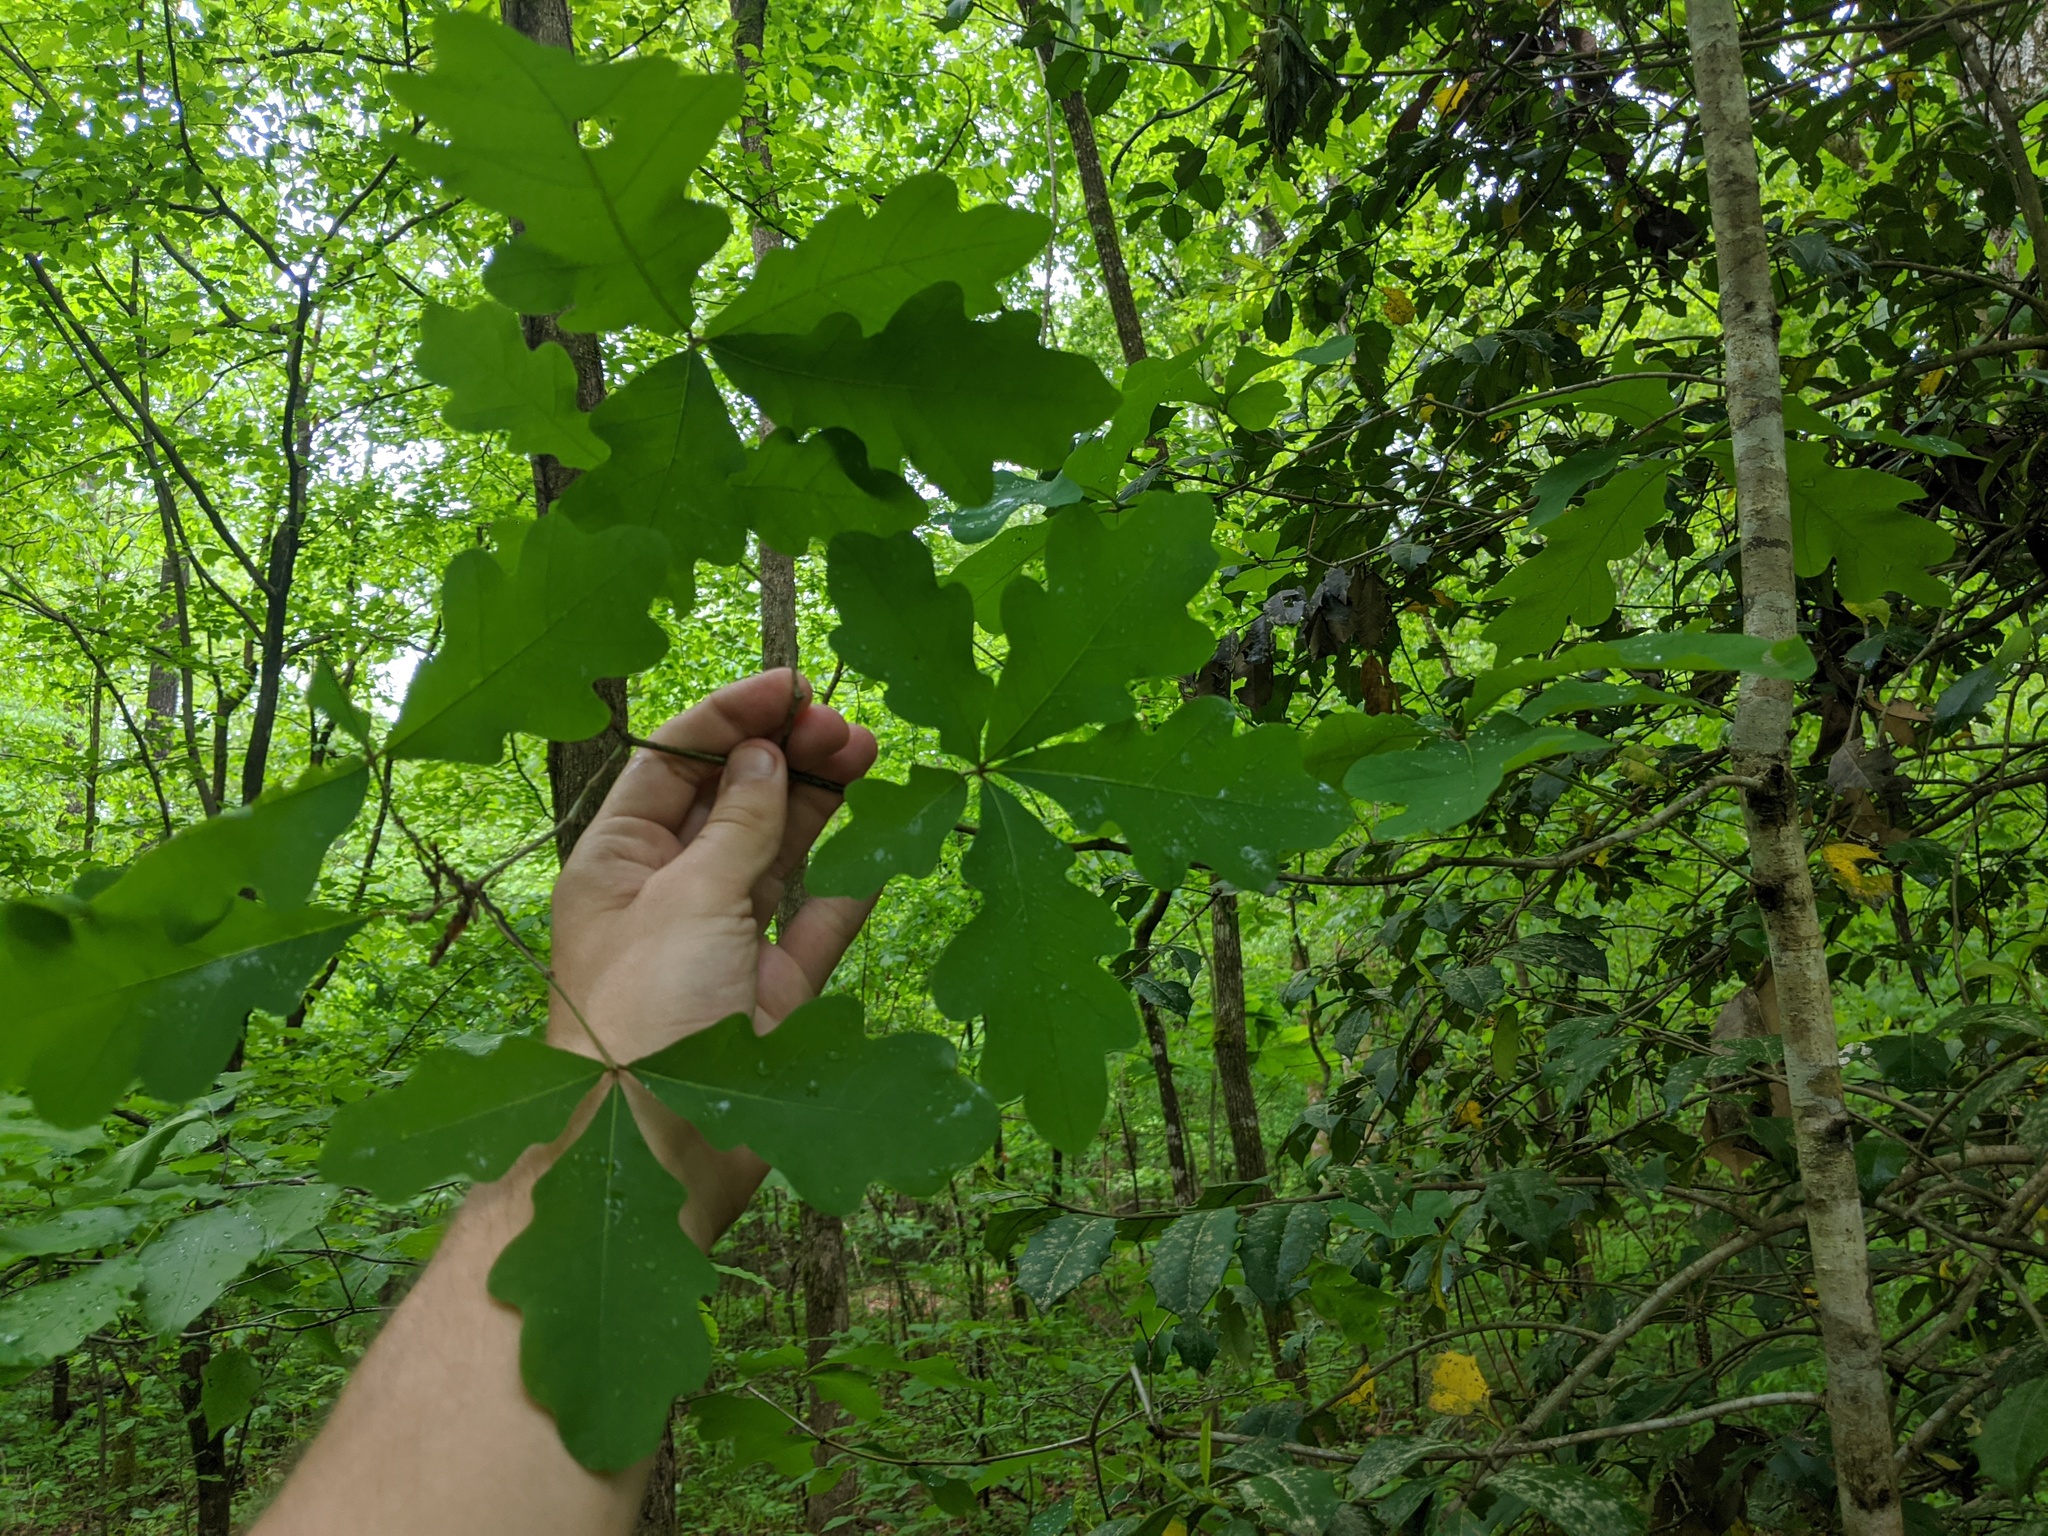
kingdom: Plantae
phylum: Tracheophyta
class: Magnoliopsida
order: Fagales
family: Fagaceae
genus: Quercus
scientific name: Quercus alba
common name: White oak
